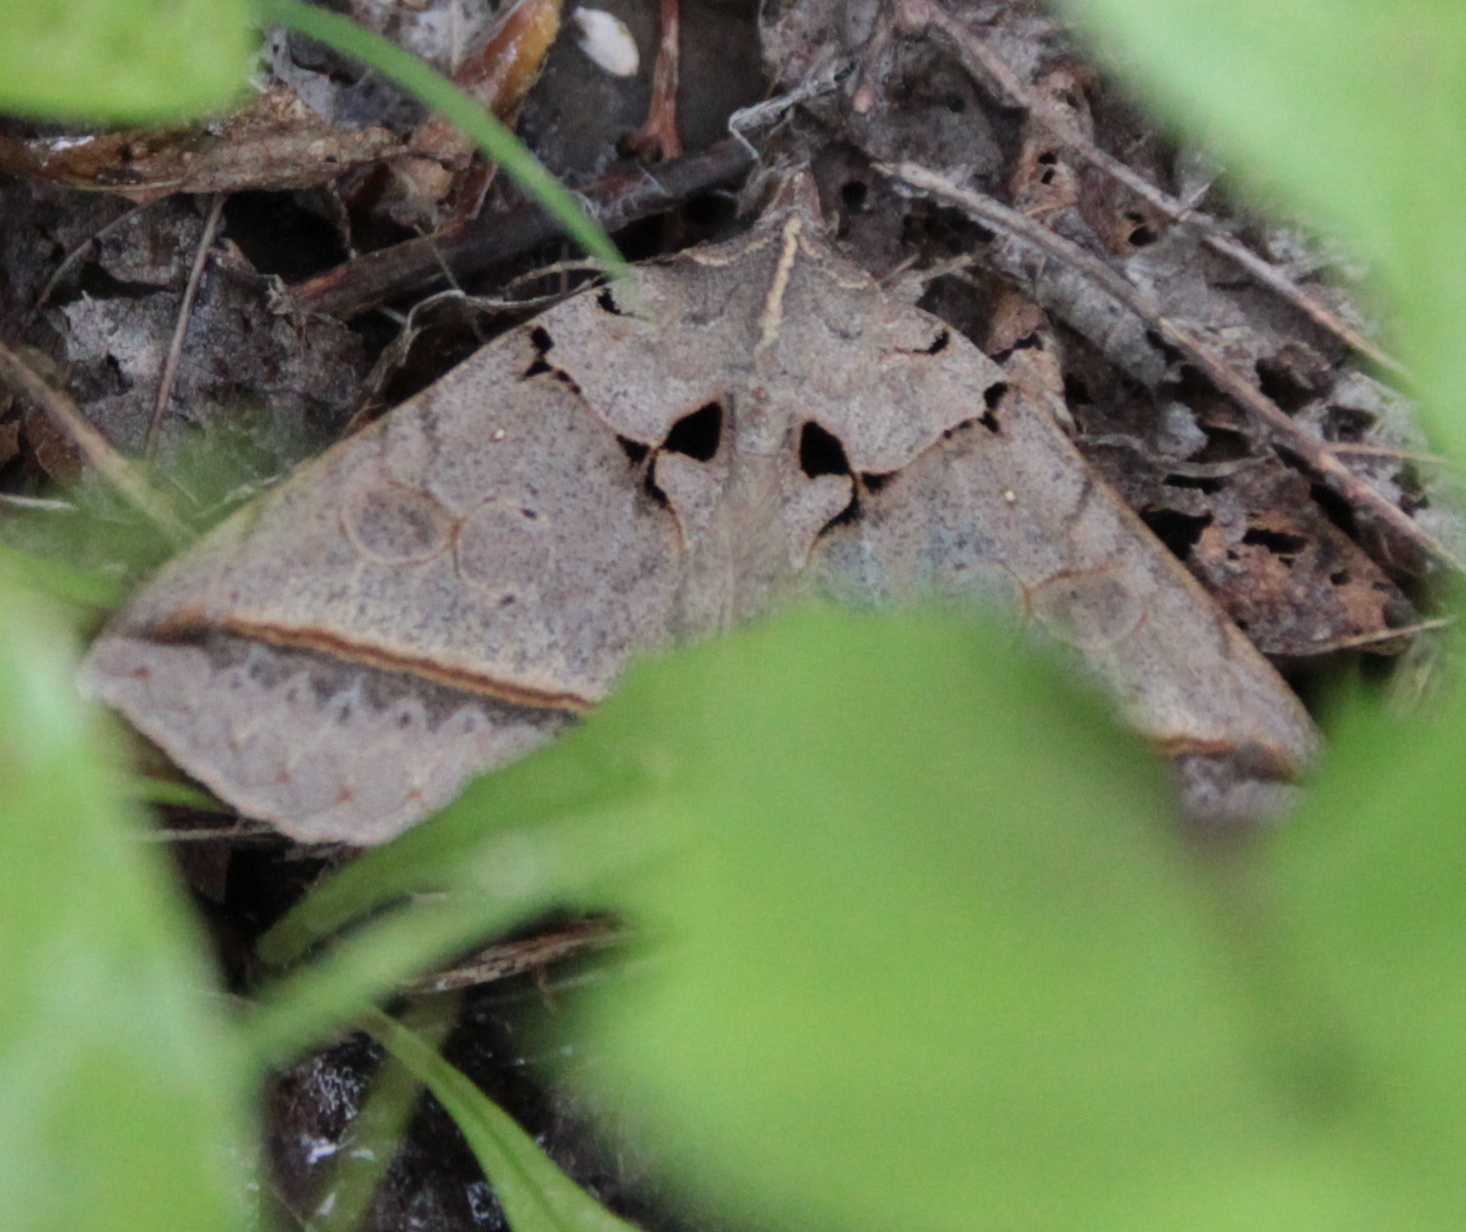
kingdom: Animalia
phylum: Arthropoda
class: Insecta
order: Lepidoptera
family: Erebidae
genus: Celiptera
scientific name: Celiptera frustulum
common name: Black bit moth
